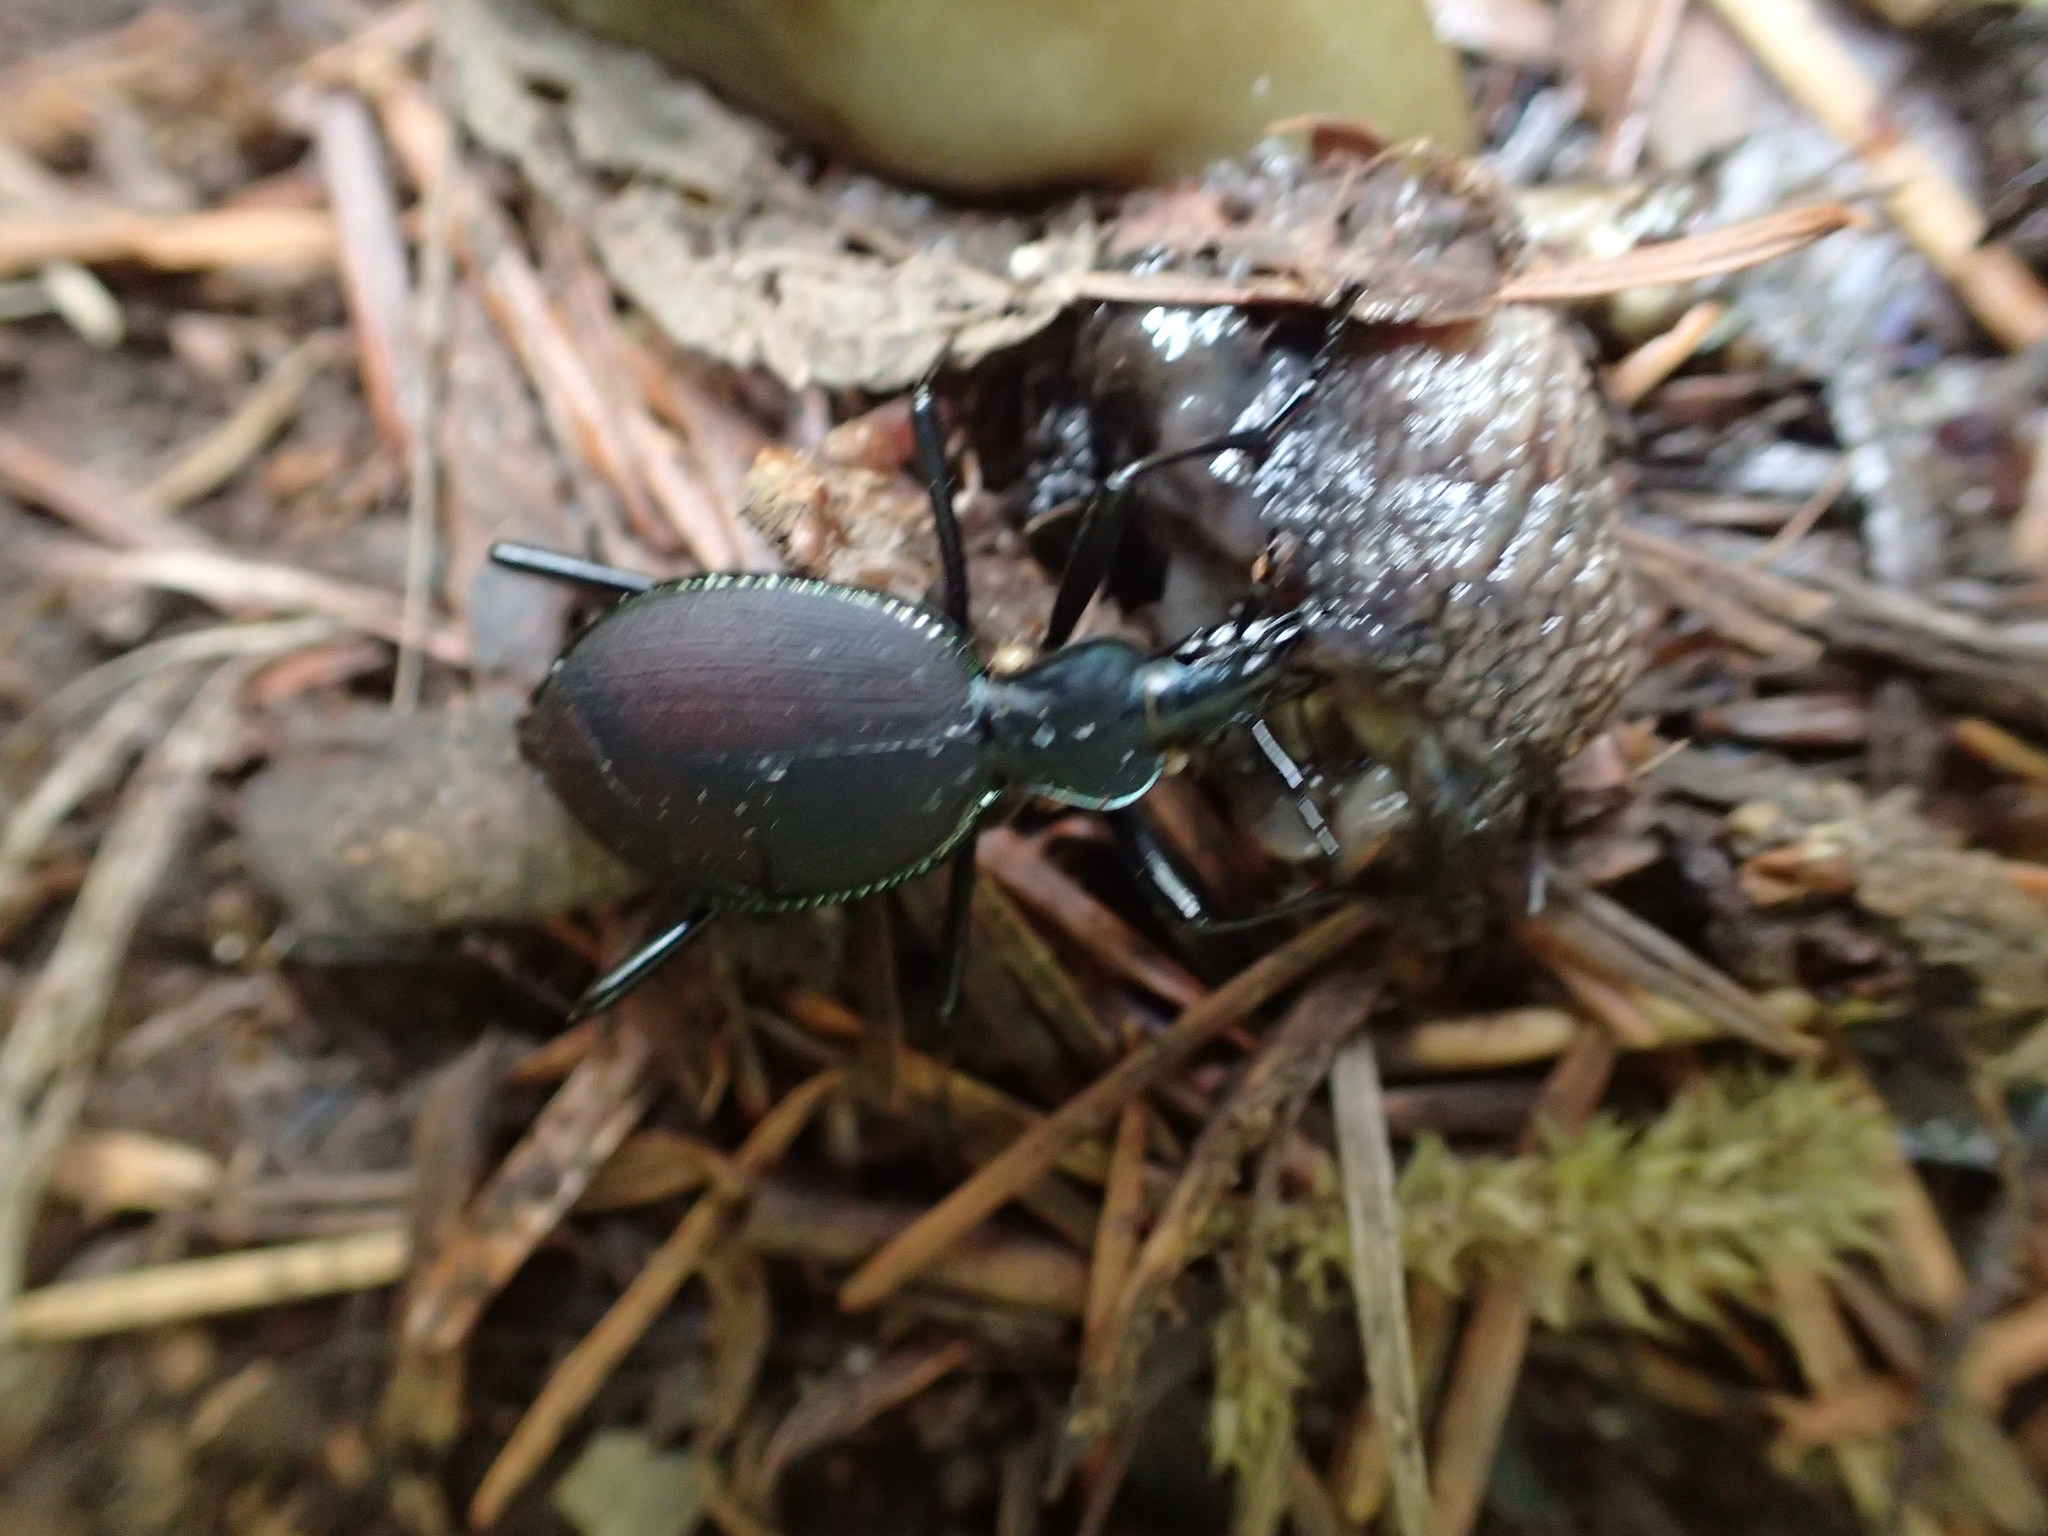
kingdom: Animalia
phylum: Arthropoda
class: Insecta
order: Coleoptera
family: Carabidae
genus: Scaphinotus
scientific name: Scaphinotus angusticollis
